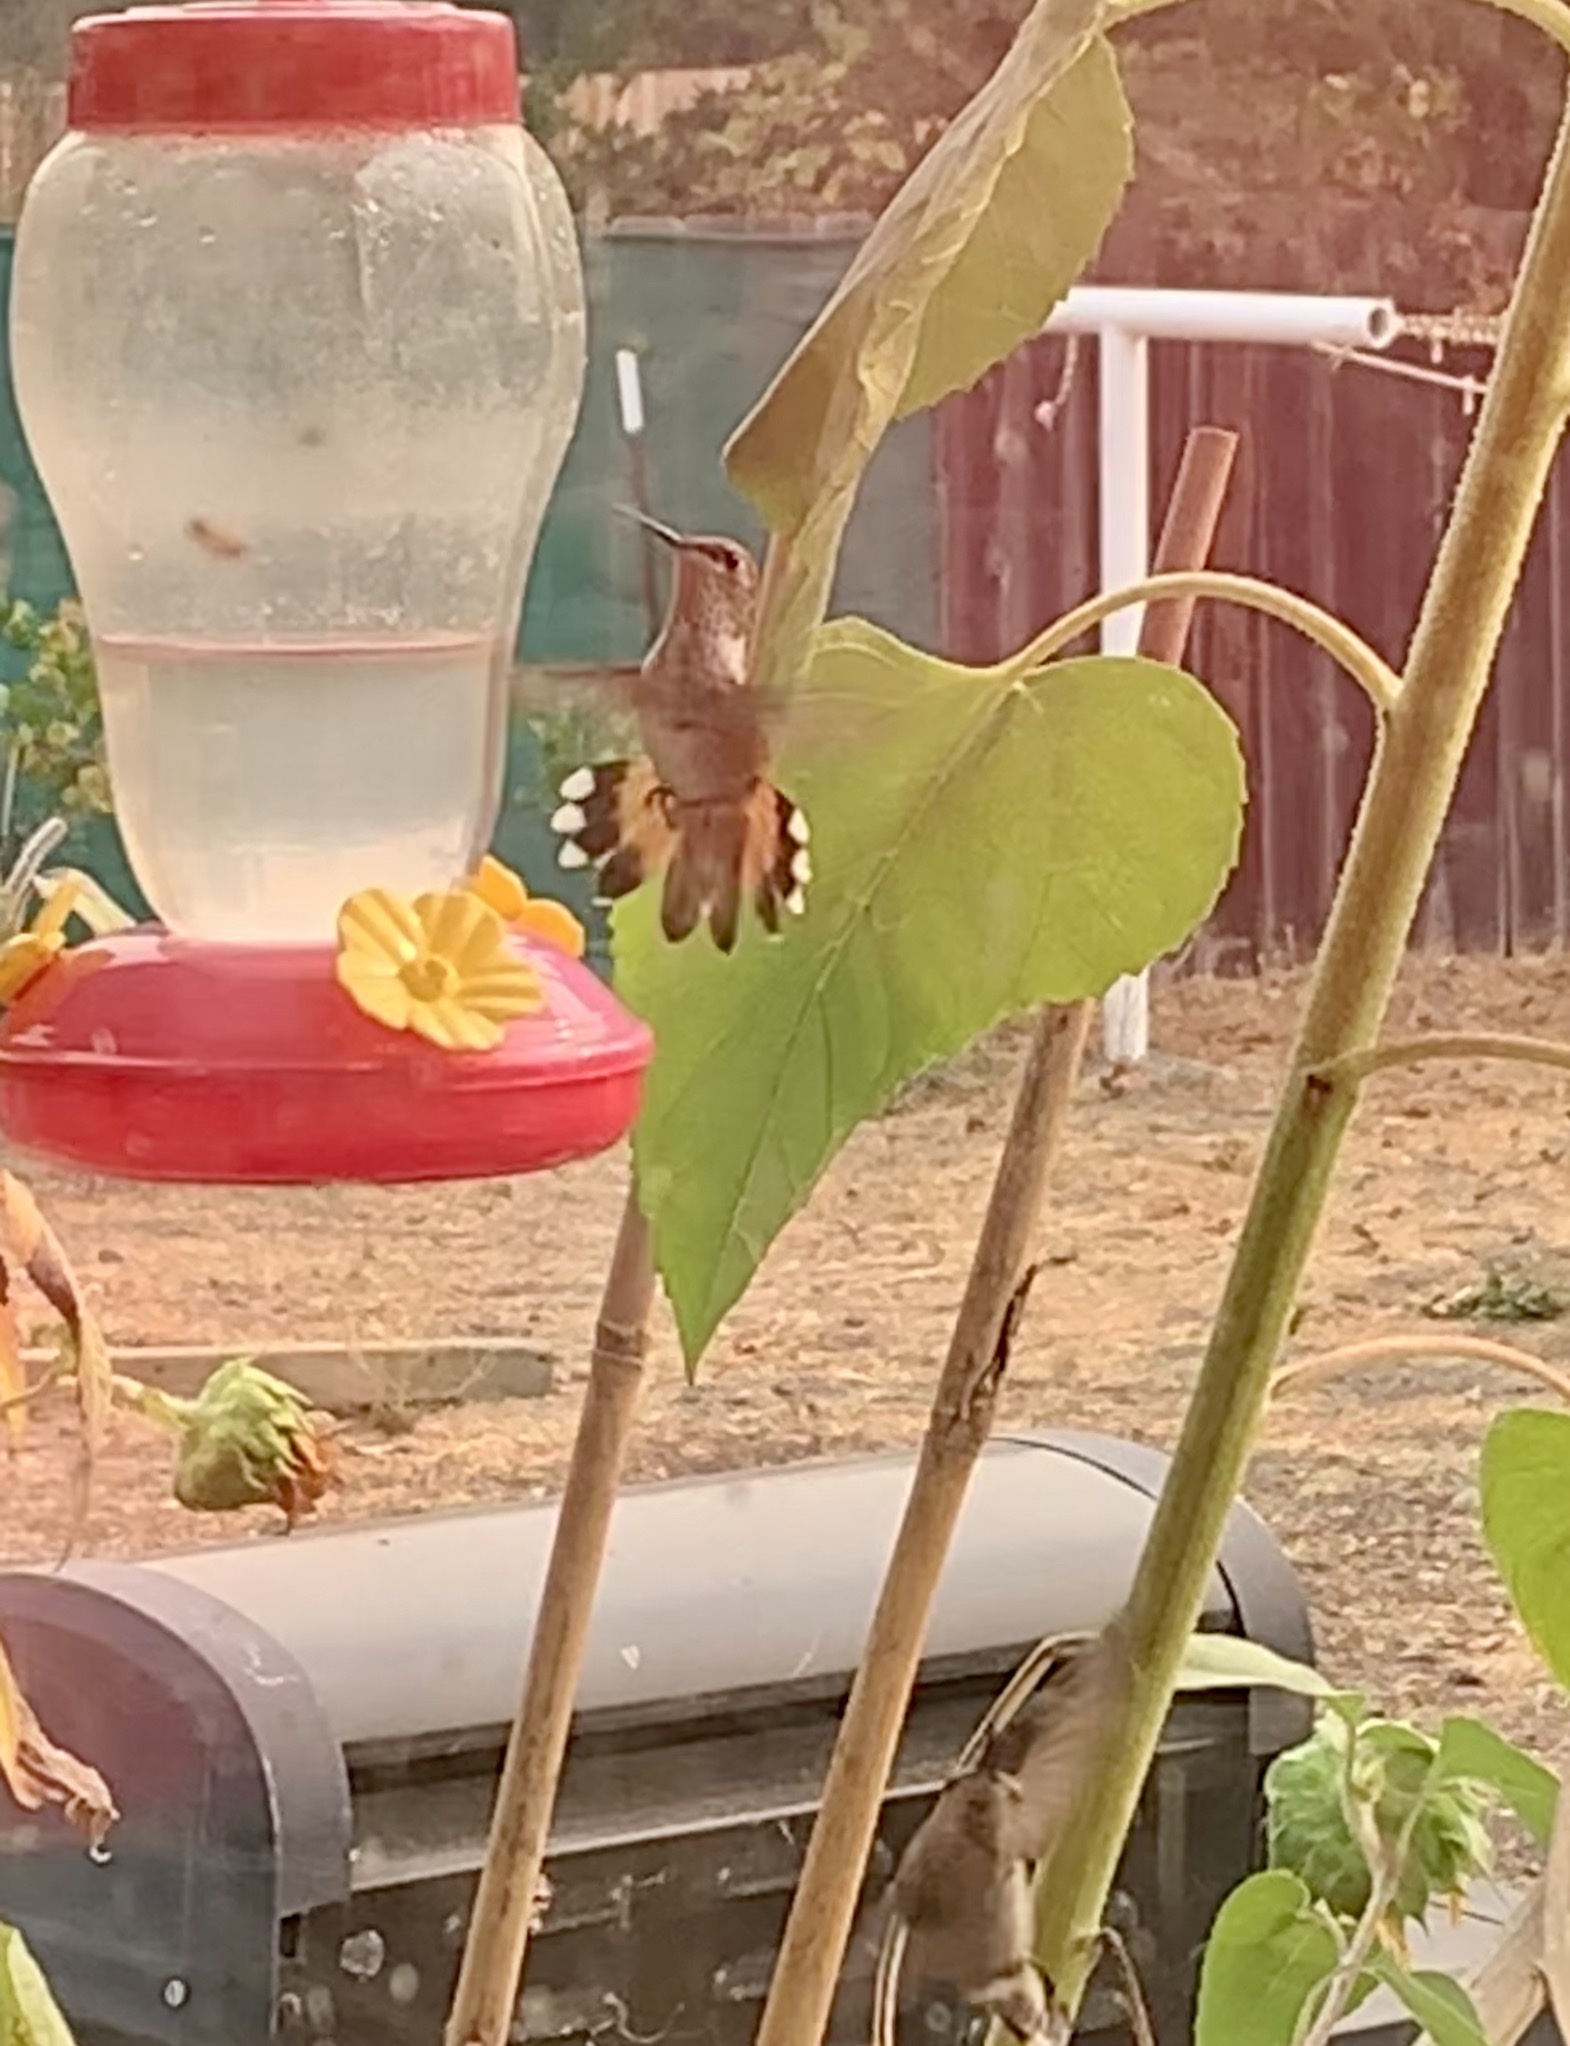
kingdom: Animalia
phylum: Chordata
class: Aves
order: Apodiformes
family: Trochilidae
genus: Selasphorus
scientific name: Selasphorus
